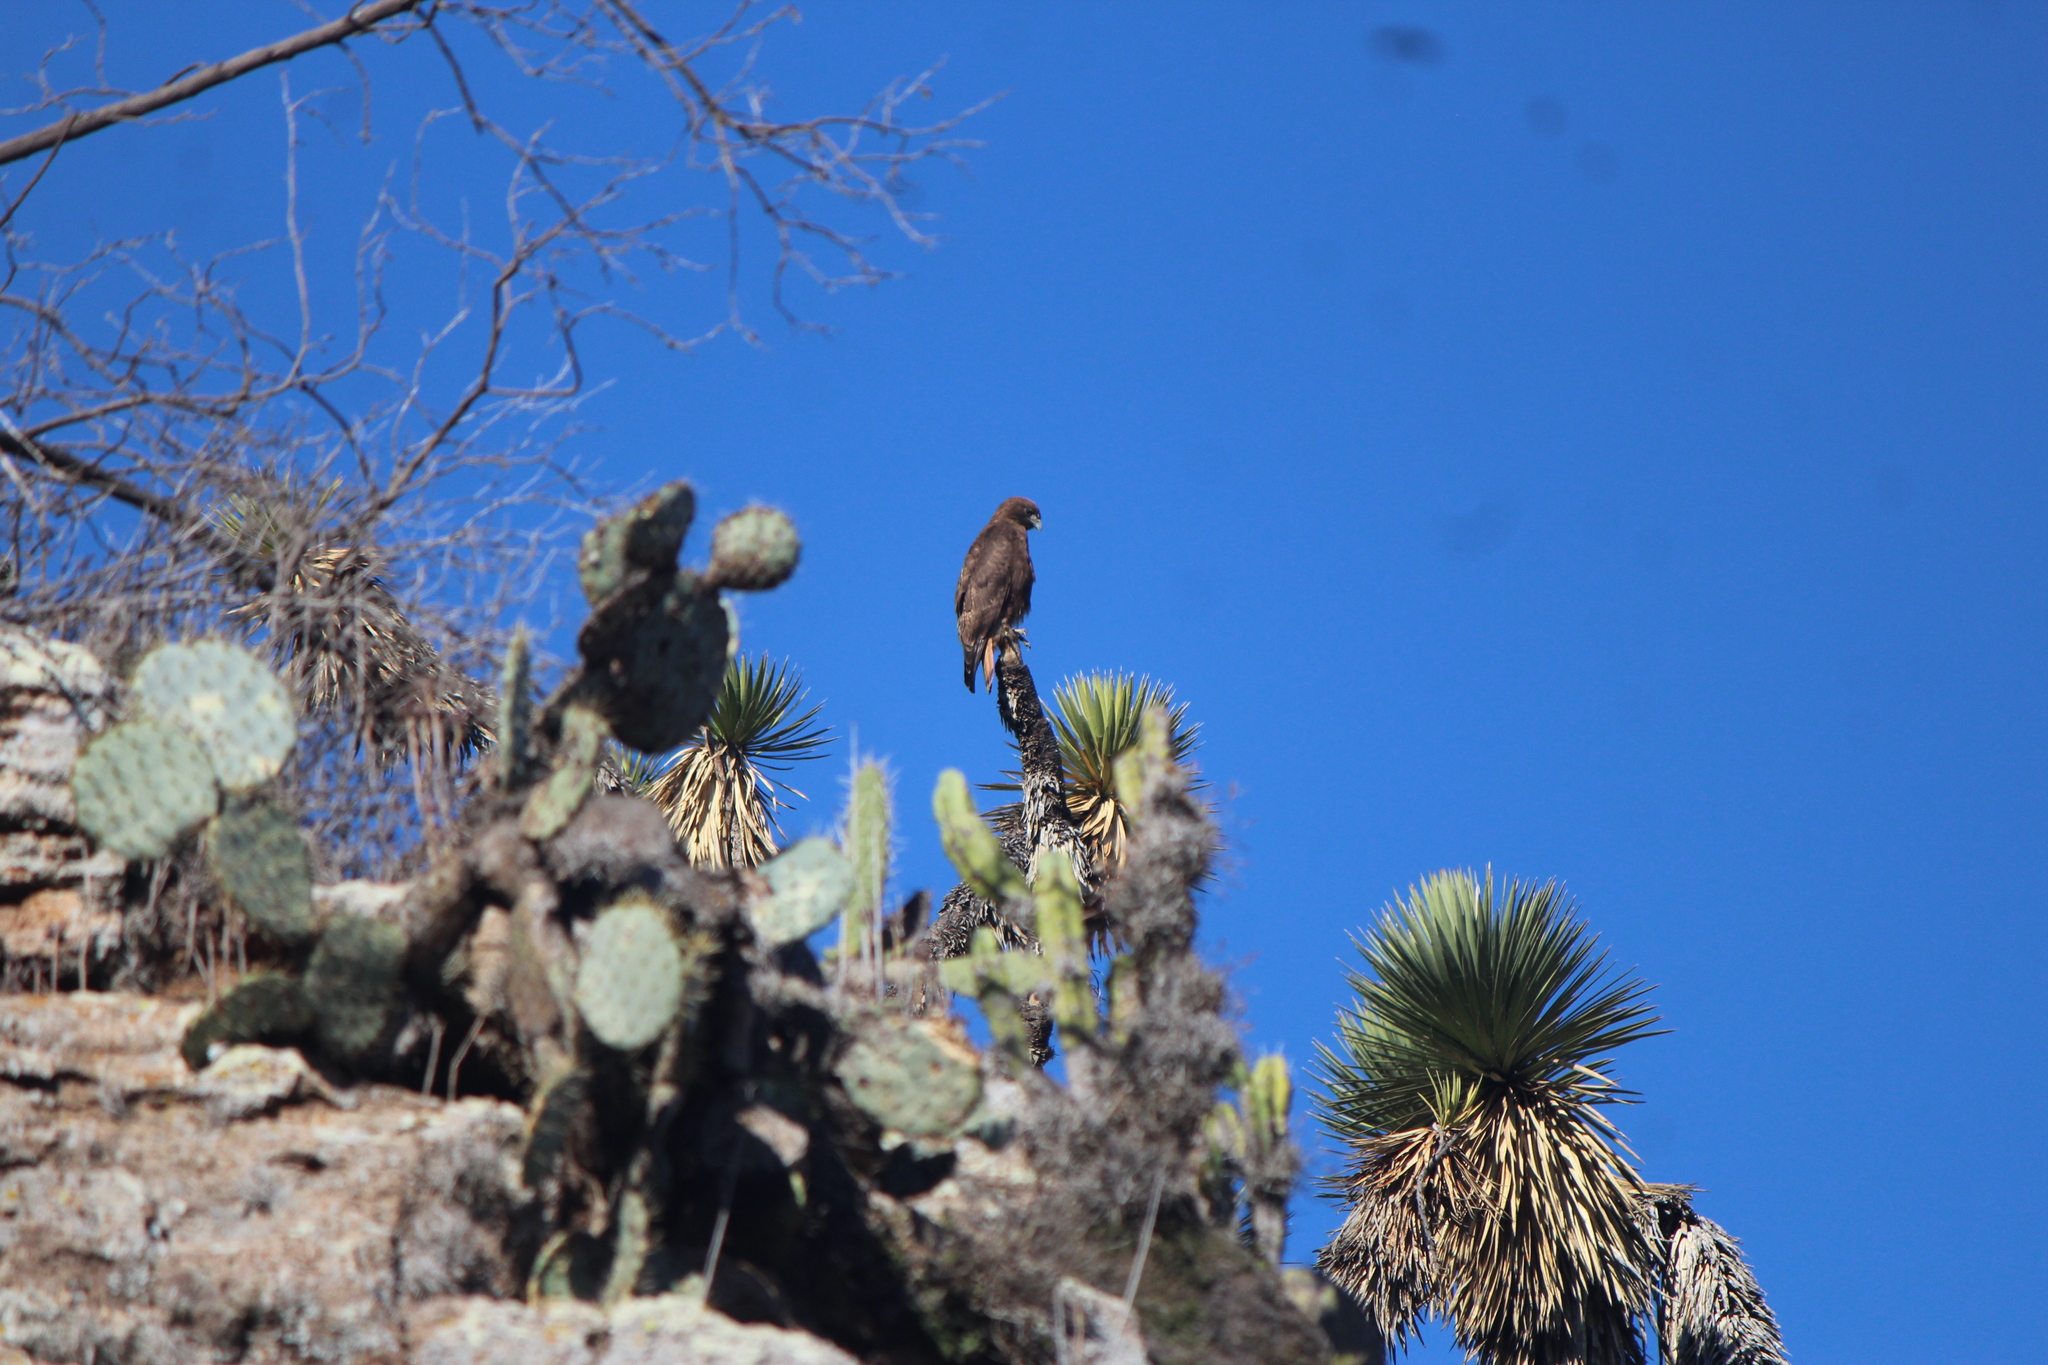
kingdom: Animalia
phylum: Chordata
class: Aves
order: Accipitriformes
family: Accipitridae
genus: Buteo
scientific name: Buteo jamaicensis
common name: Red-tailed hawk
